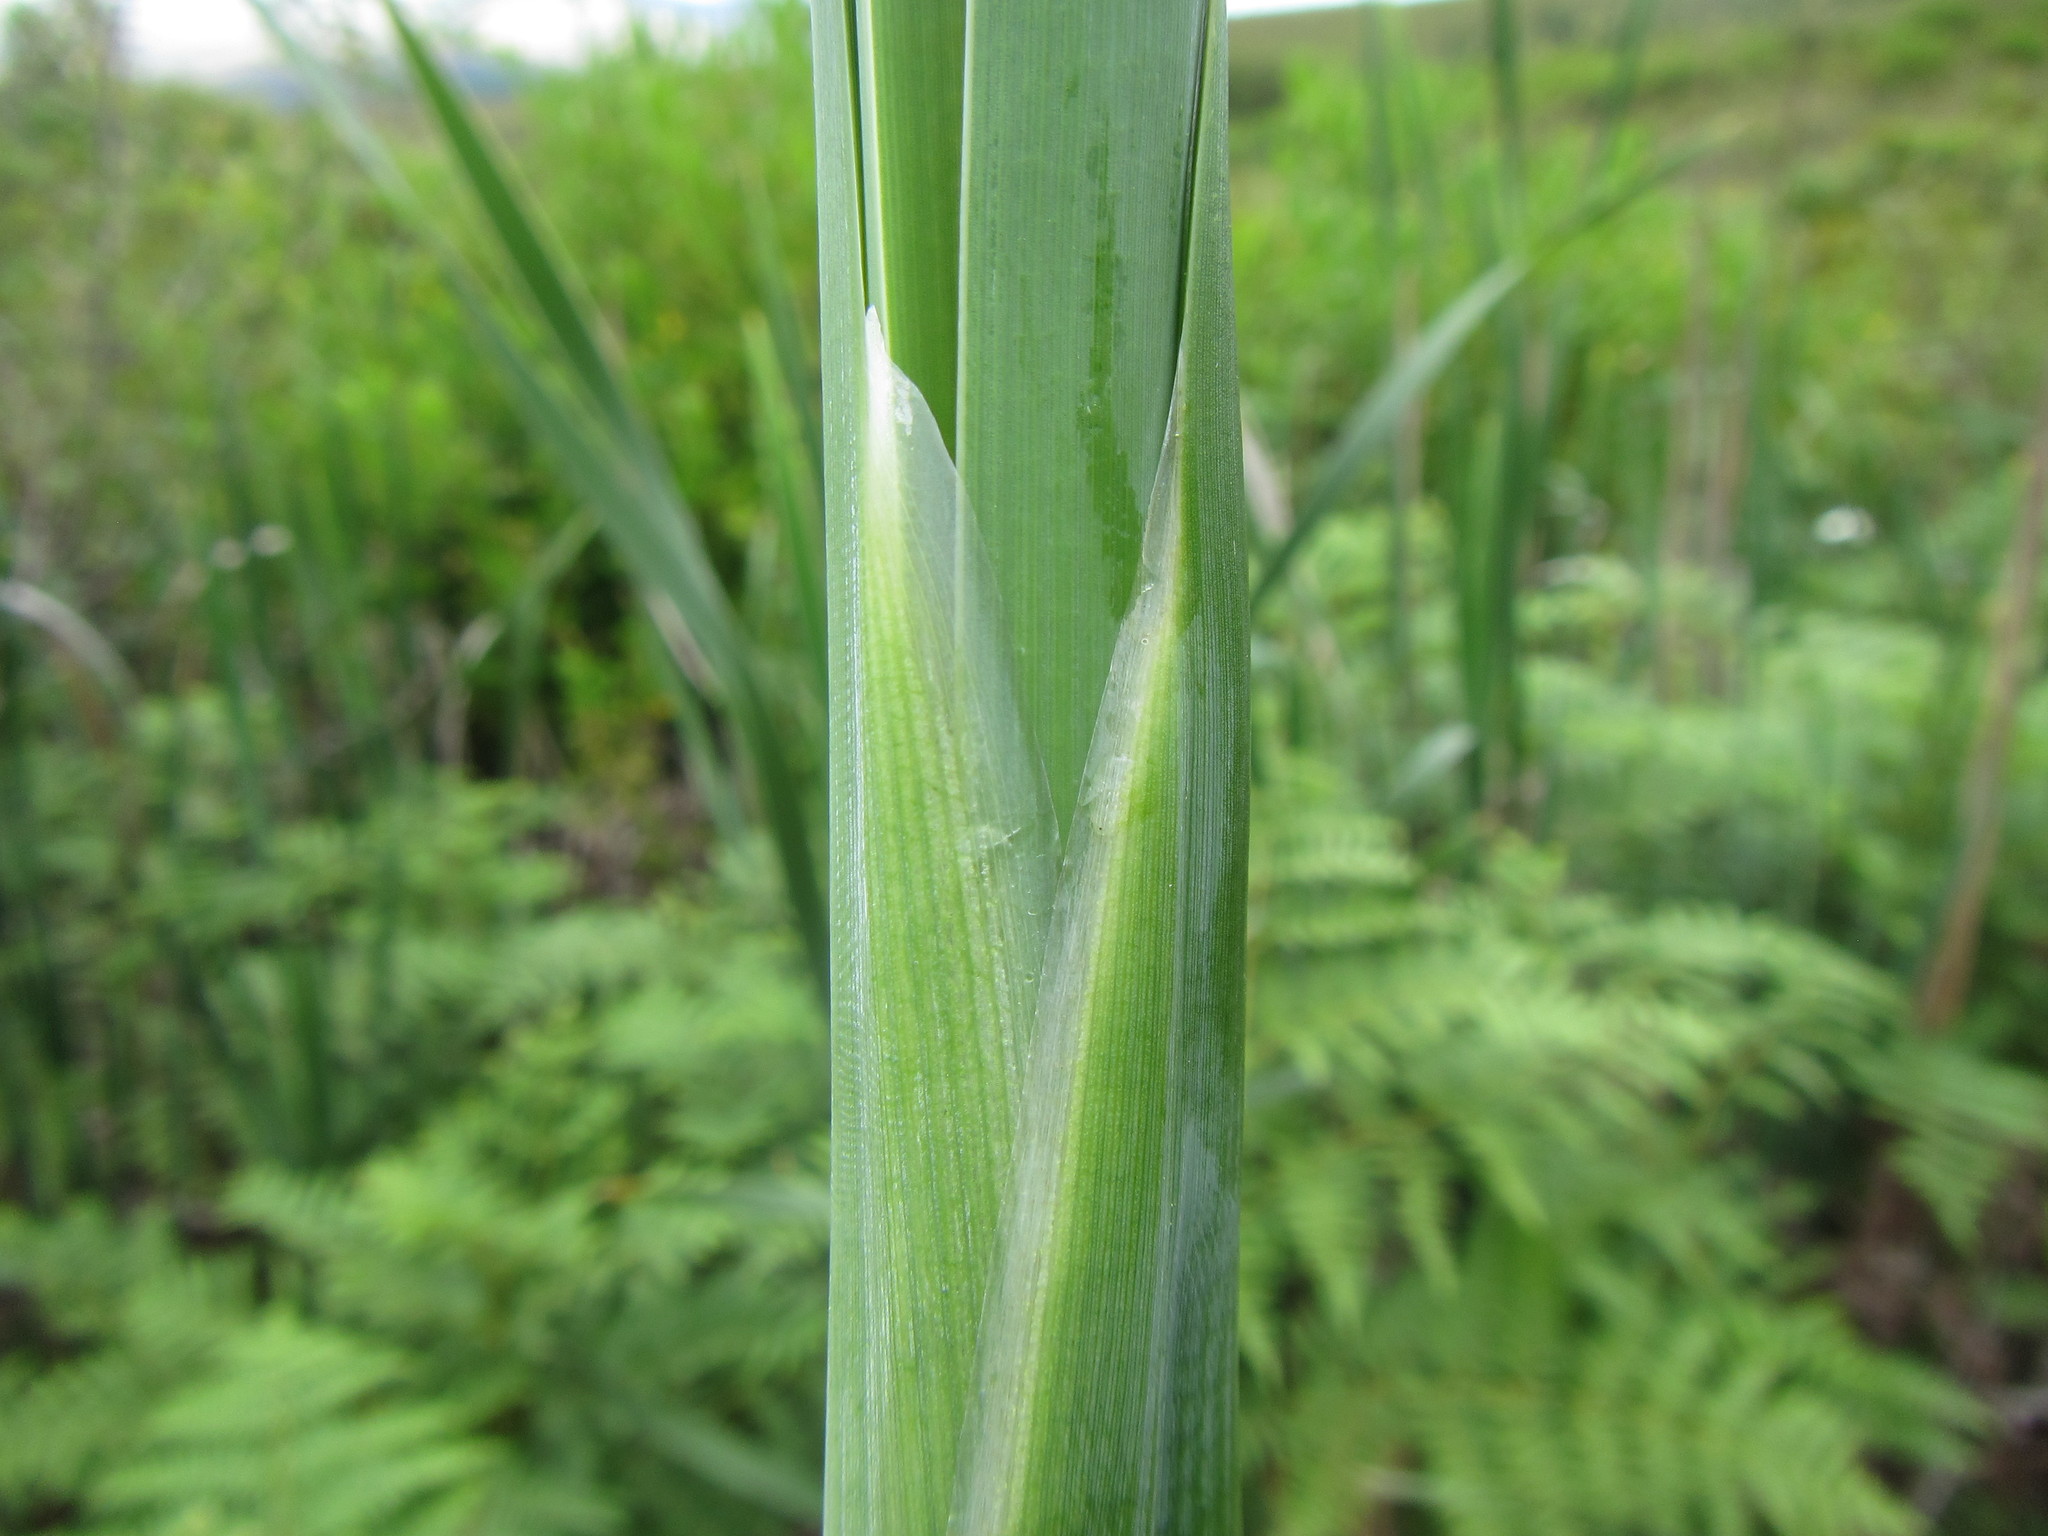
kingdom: Plantae
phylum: Tracheophyta
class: Liliopsida
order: Poales
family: Typhaceae
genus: Typha
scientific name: Typha capensis
